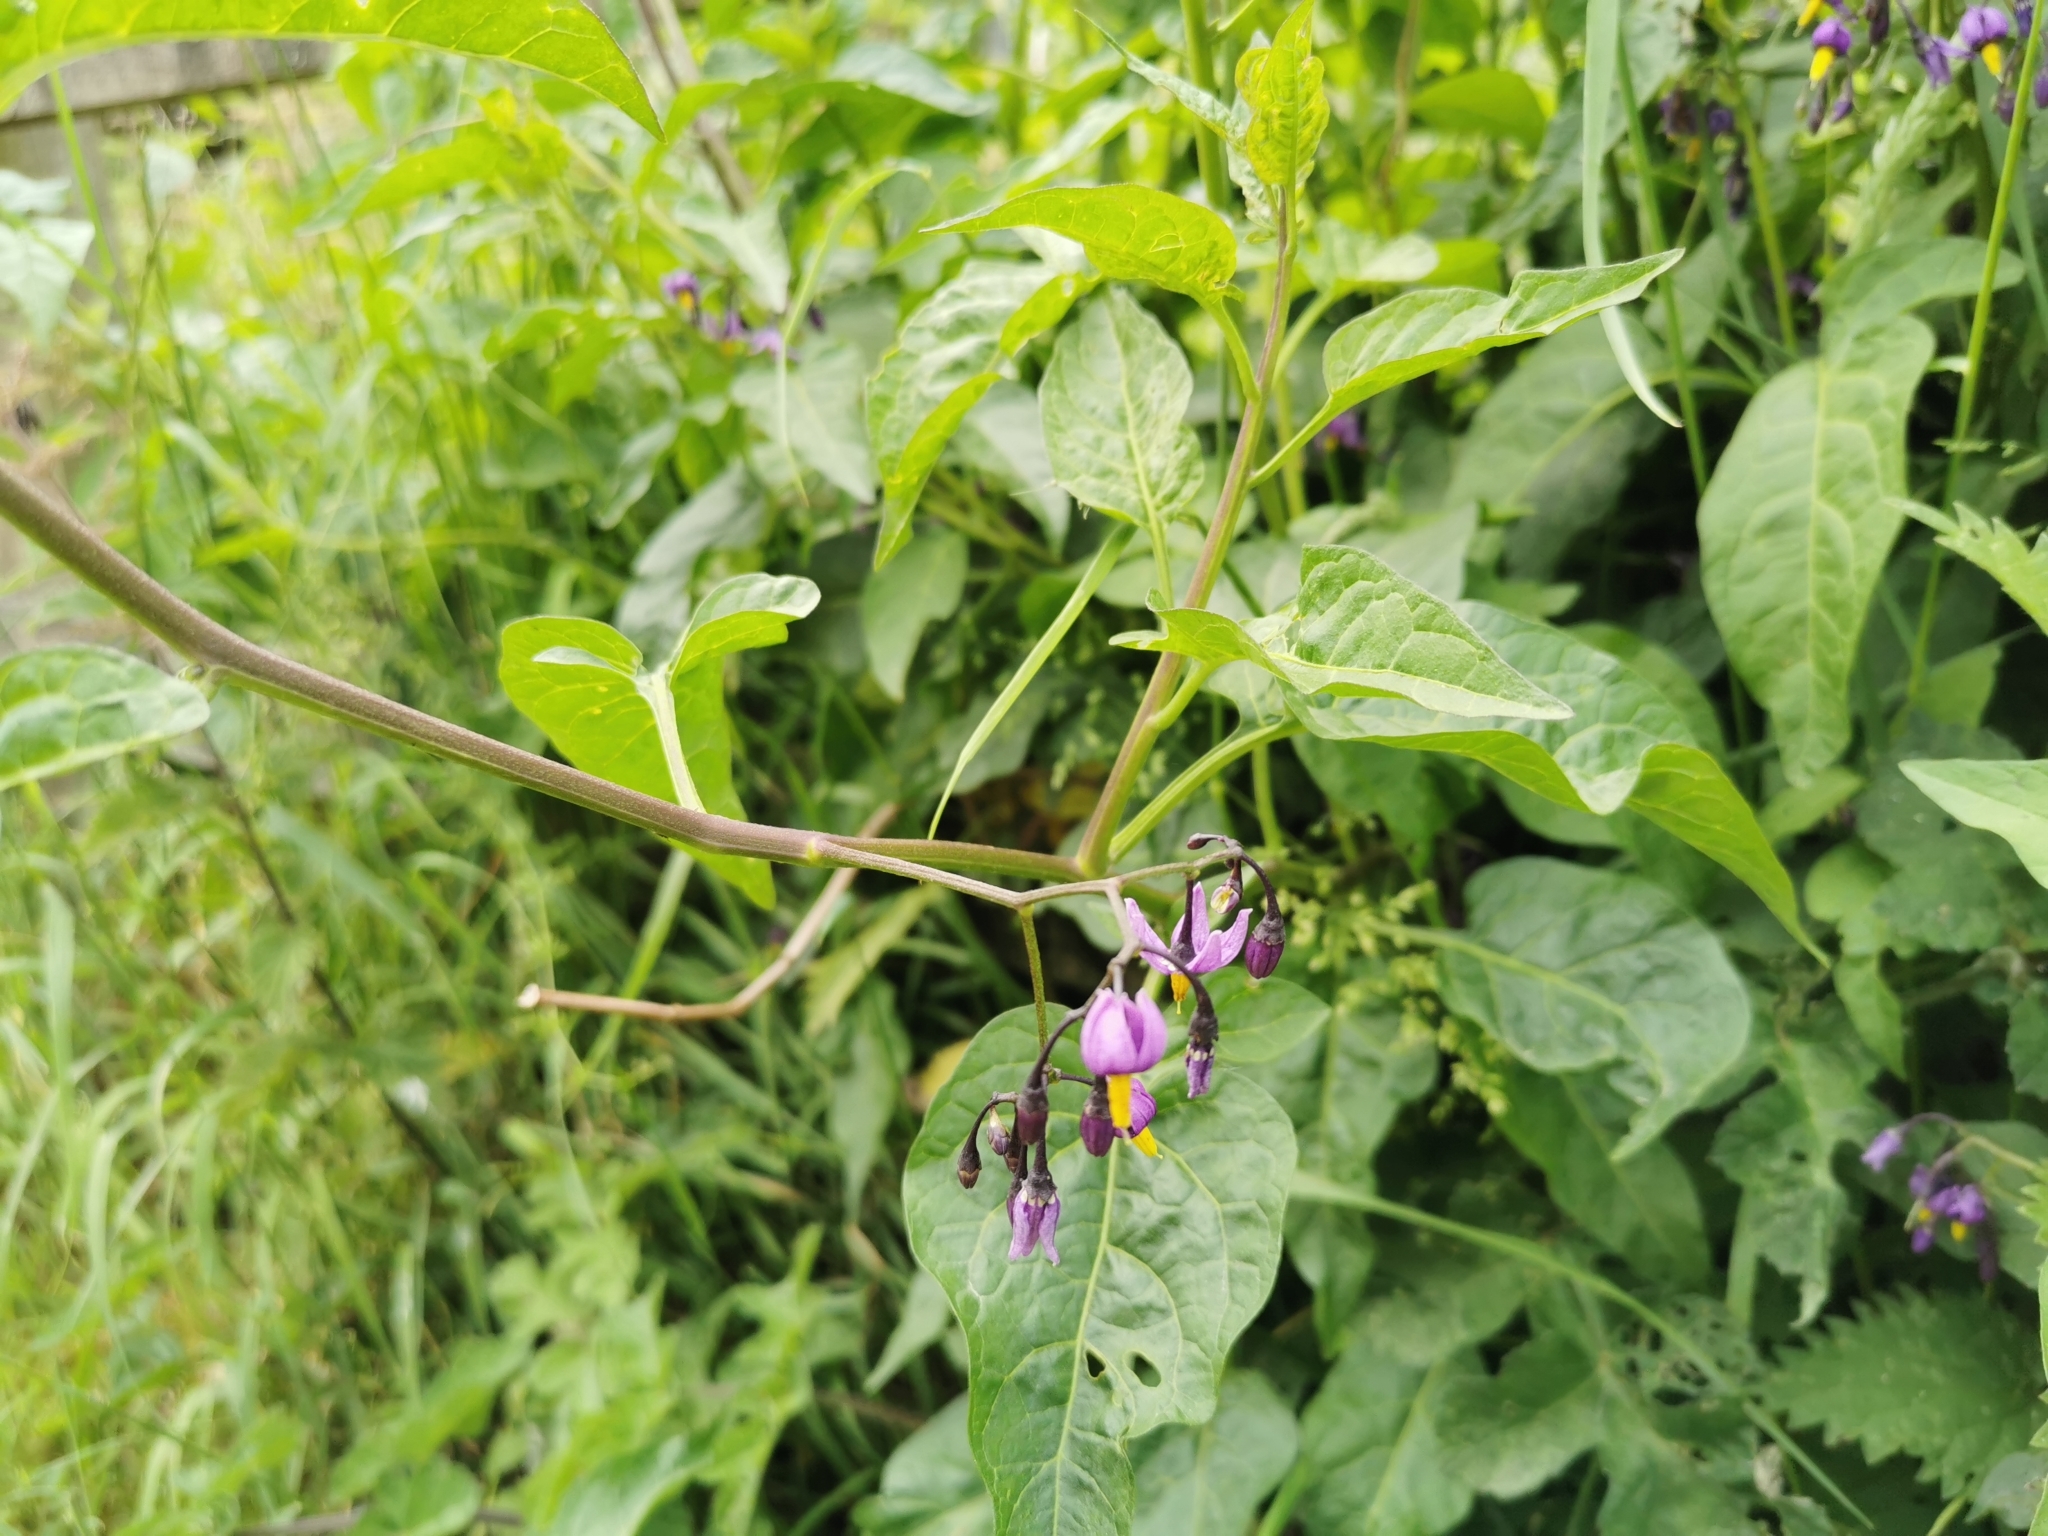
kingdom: Plantae
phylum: Tracheophyta
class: Magnoliopsida
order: Solanales
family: Solanaceae
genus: Solanum
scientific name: Solanum dulcamara
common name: Climbing nightshade
